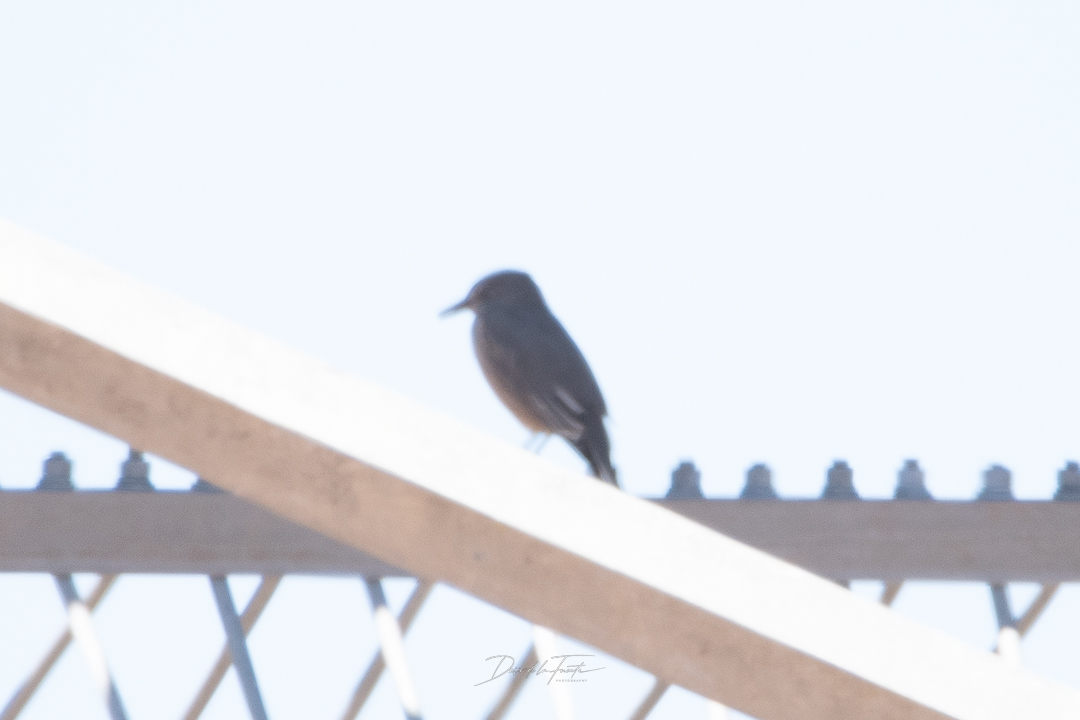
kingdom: Animalia
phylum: Chordata
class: Aves
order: Passeriformes
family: Tyrannidae
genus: Agriornis
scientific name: Agriornis montanus
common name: Black-billed shrike-tyrant
